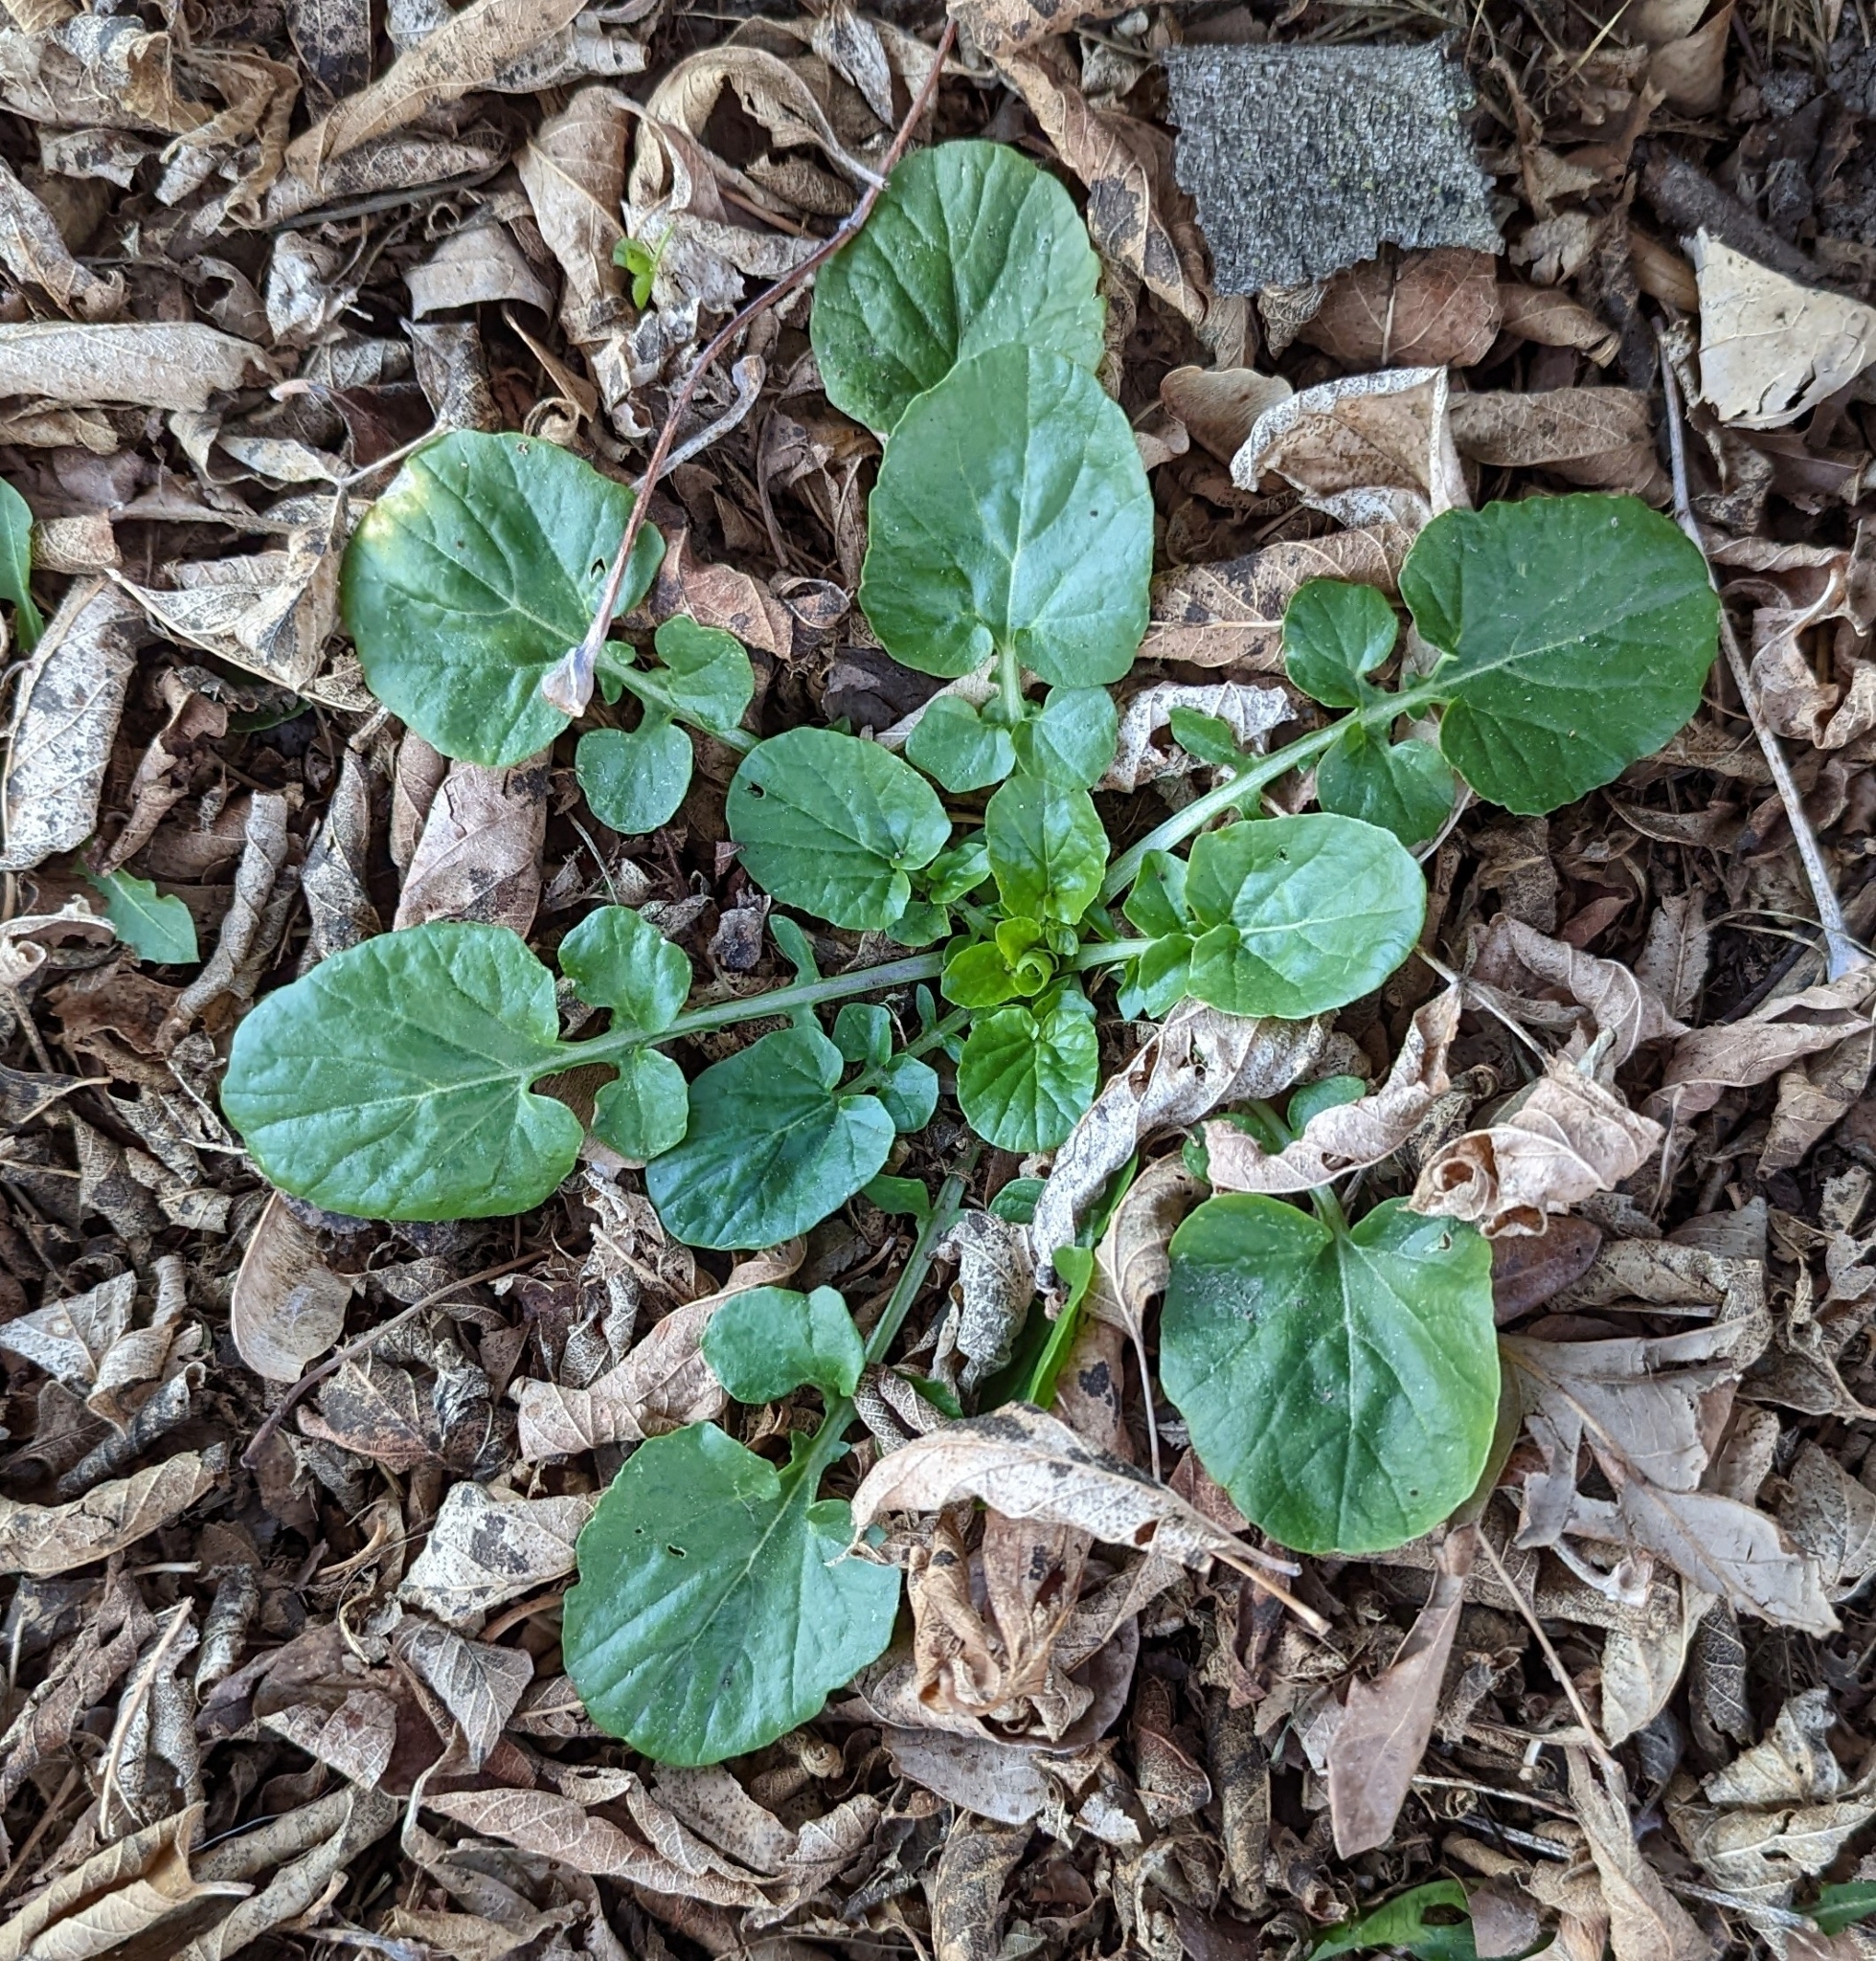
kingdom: Plantae
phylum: Tracheophyta
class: Magnoliopsida
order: Brassicales
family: Brassicaceae
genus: Barbarea
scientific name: Barbarea vulgaris
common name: Cressy-greens
